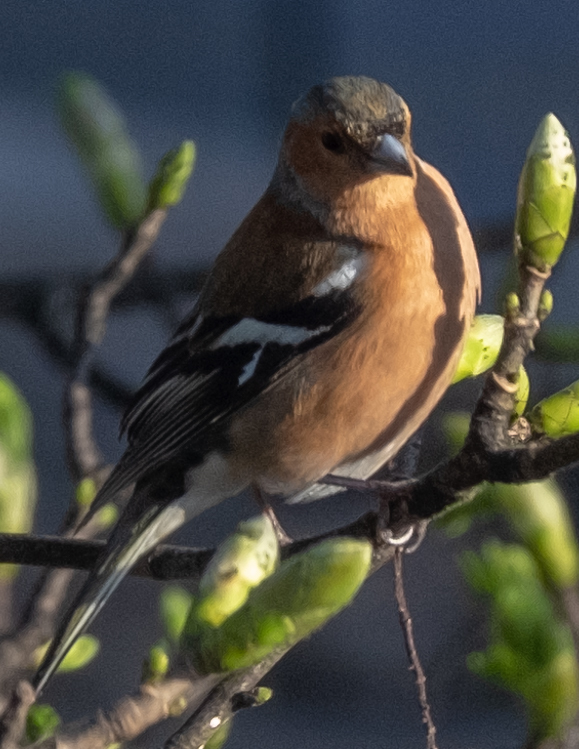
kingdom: Animalia
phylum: Chordata
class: Aves
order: Passeriformes
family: Fringillidae
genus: Fringilla
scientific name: Fringilla coelebs
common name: Common chaffinch
